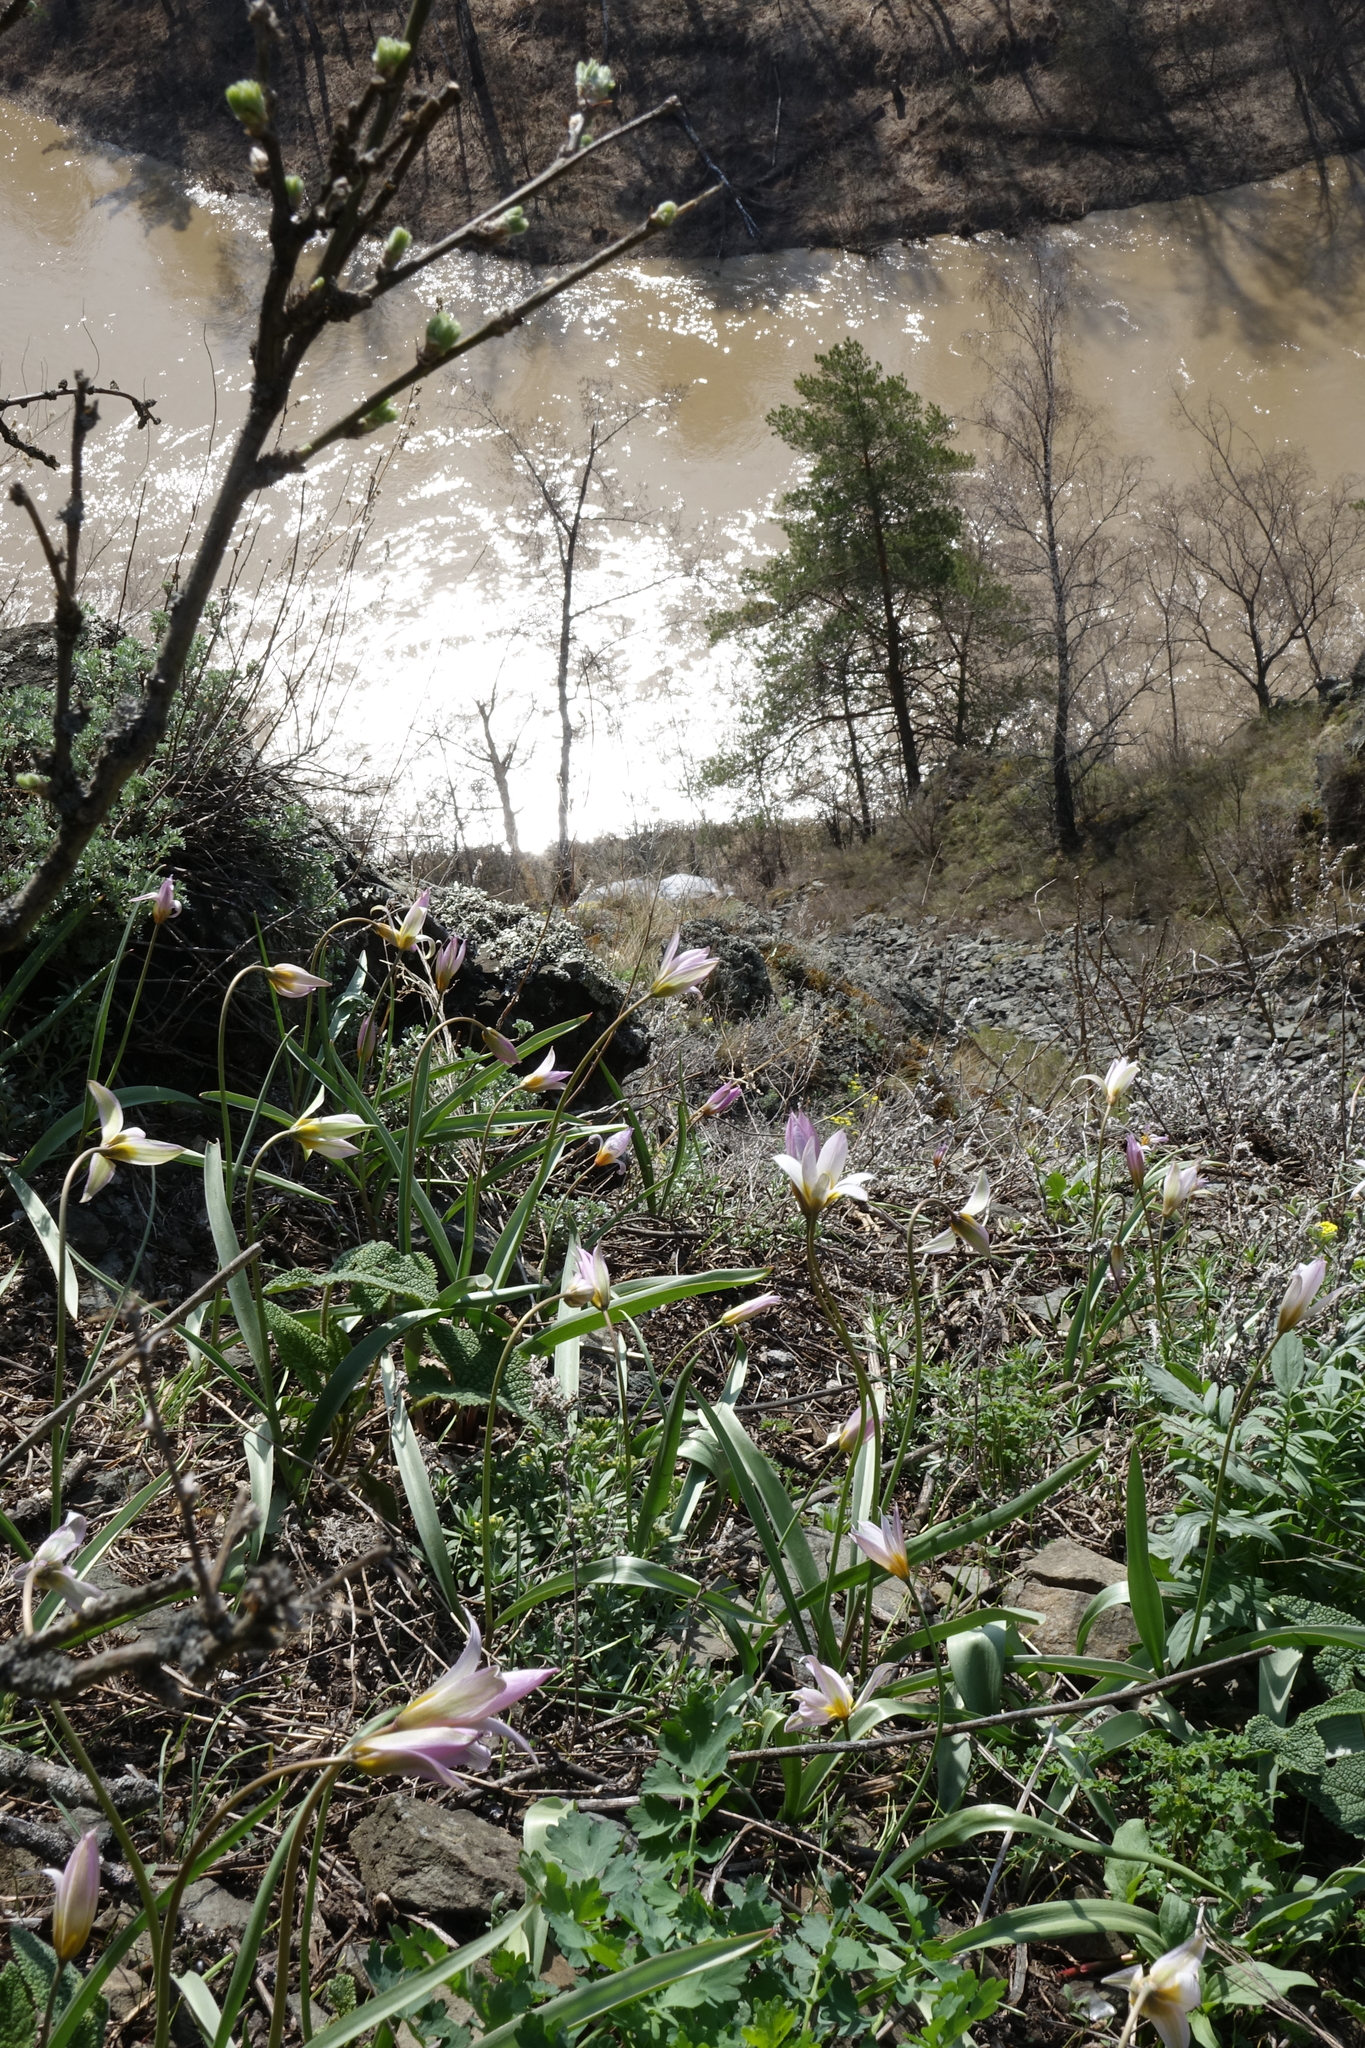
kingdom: Plantae
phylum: Tracheophyta
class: Liliopsida
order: Liliales
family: Liliaceae
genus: Tulipa
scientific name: Tulipa patens
